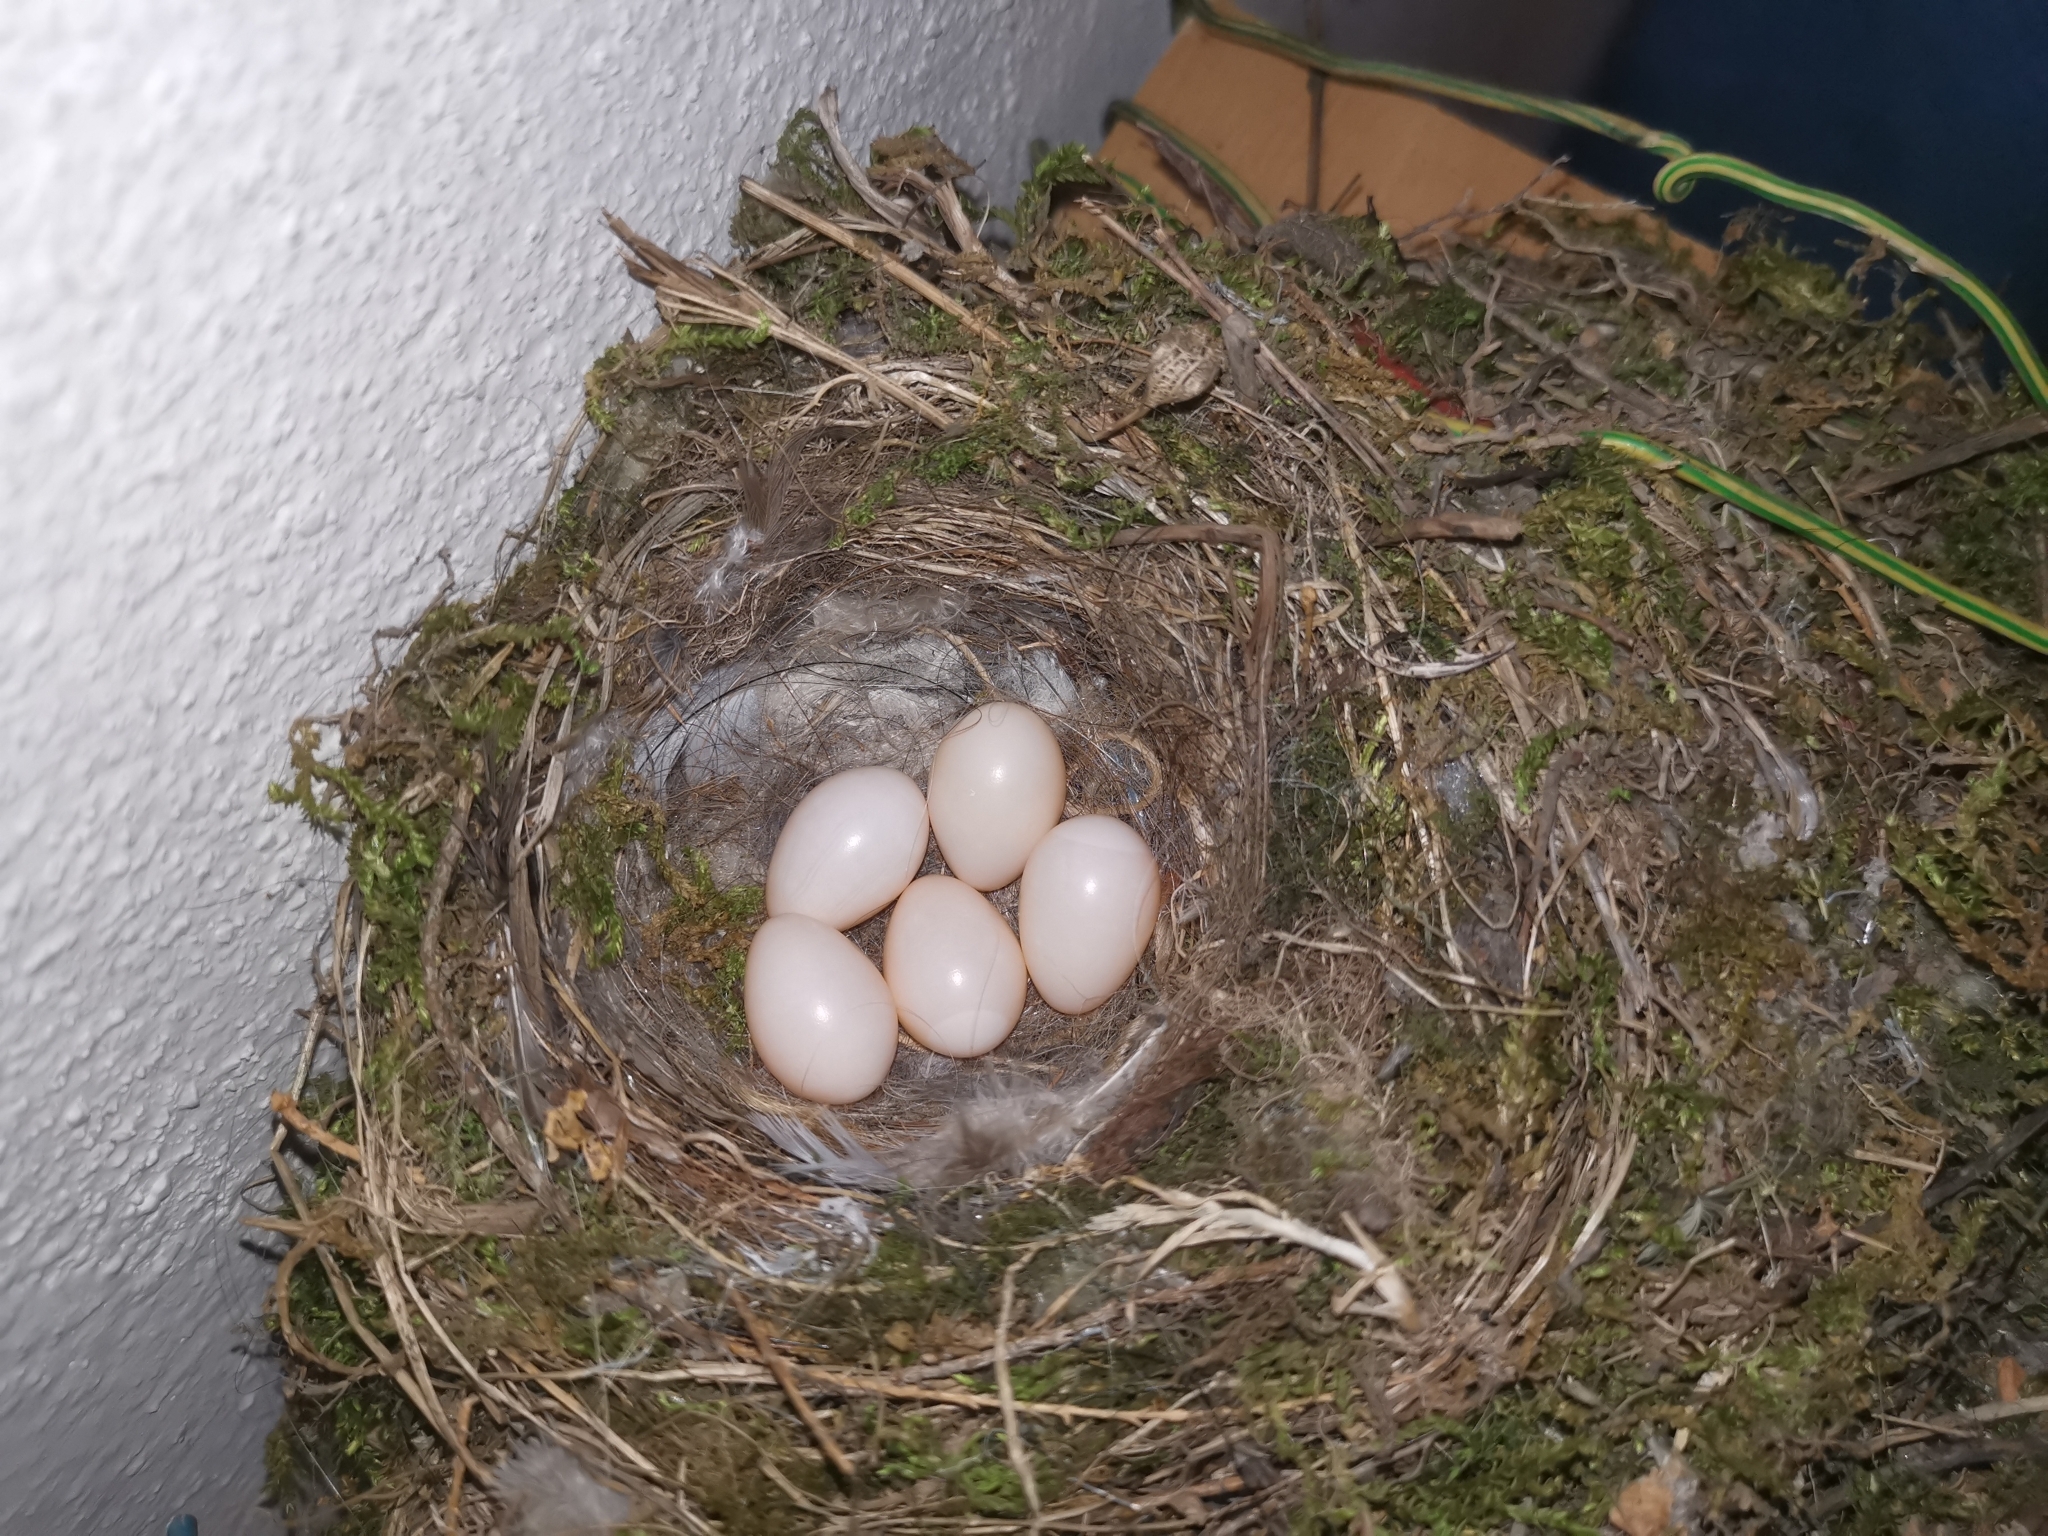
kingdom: Animalia
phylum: Chordata
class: Aves
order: Passeriformes
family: Muscicapidae
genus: Phoenicurus
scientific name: Phoenicurus ochruros
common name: Black redstart
